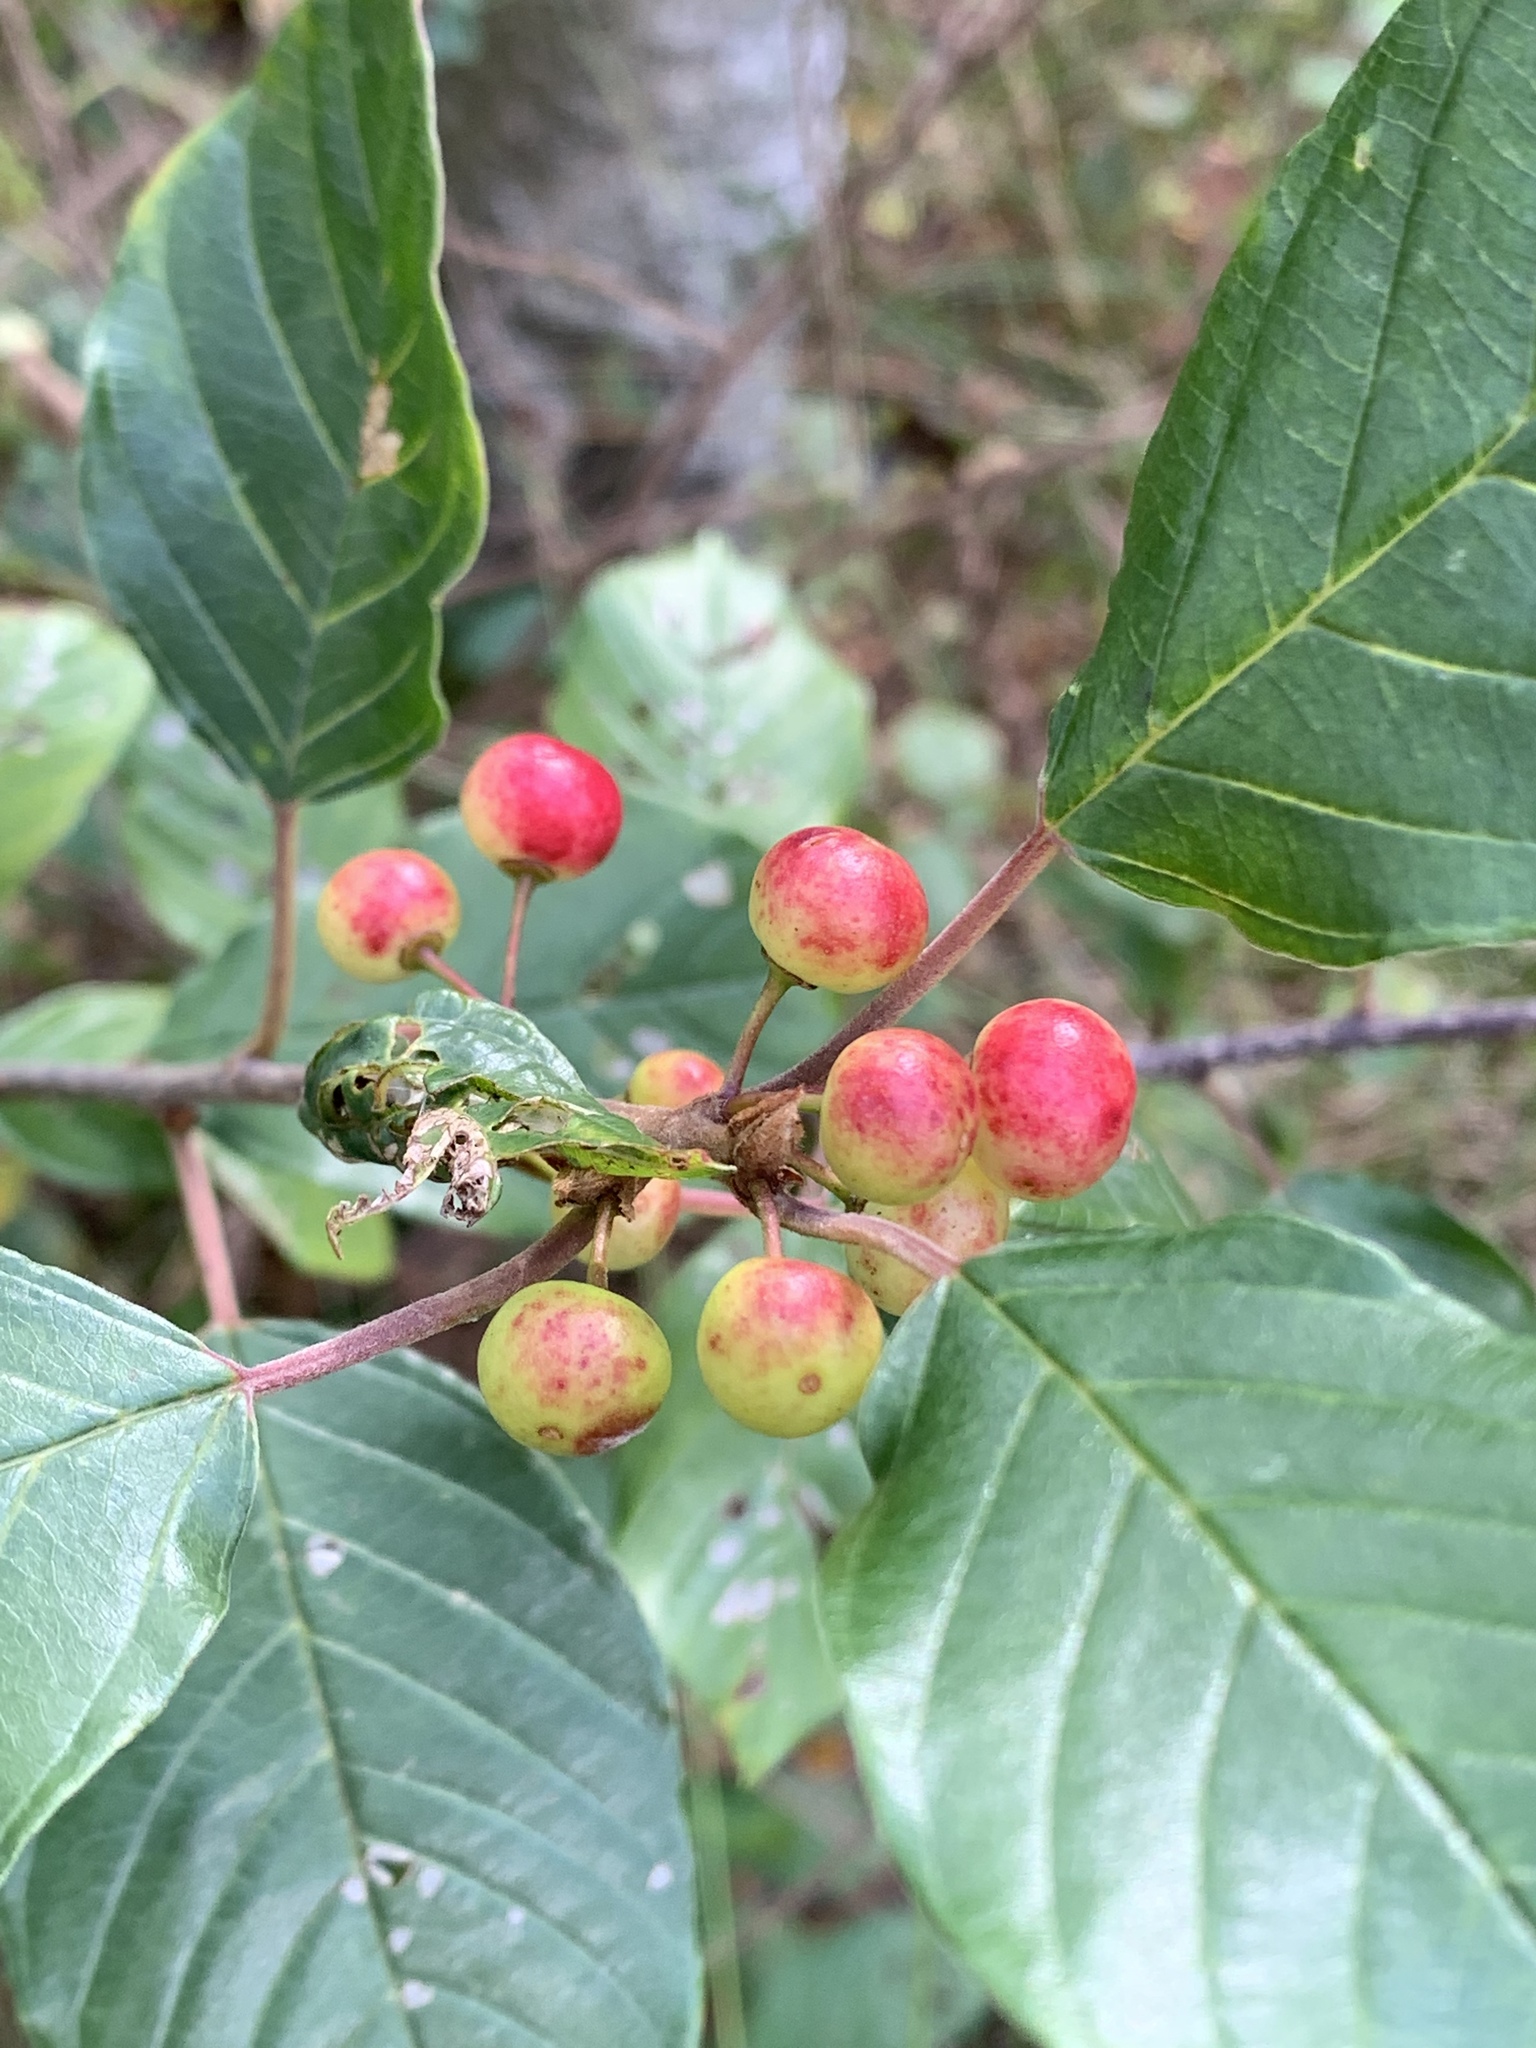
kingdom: Plantae
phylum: Tracheophyta
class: Magnoliopsida
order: Rosales
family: Rhamnaceae
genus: Frangula
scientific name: Frangula alnus
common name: Alder buckthorn
